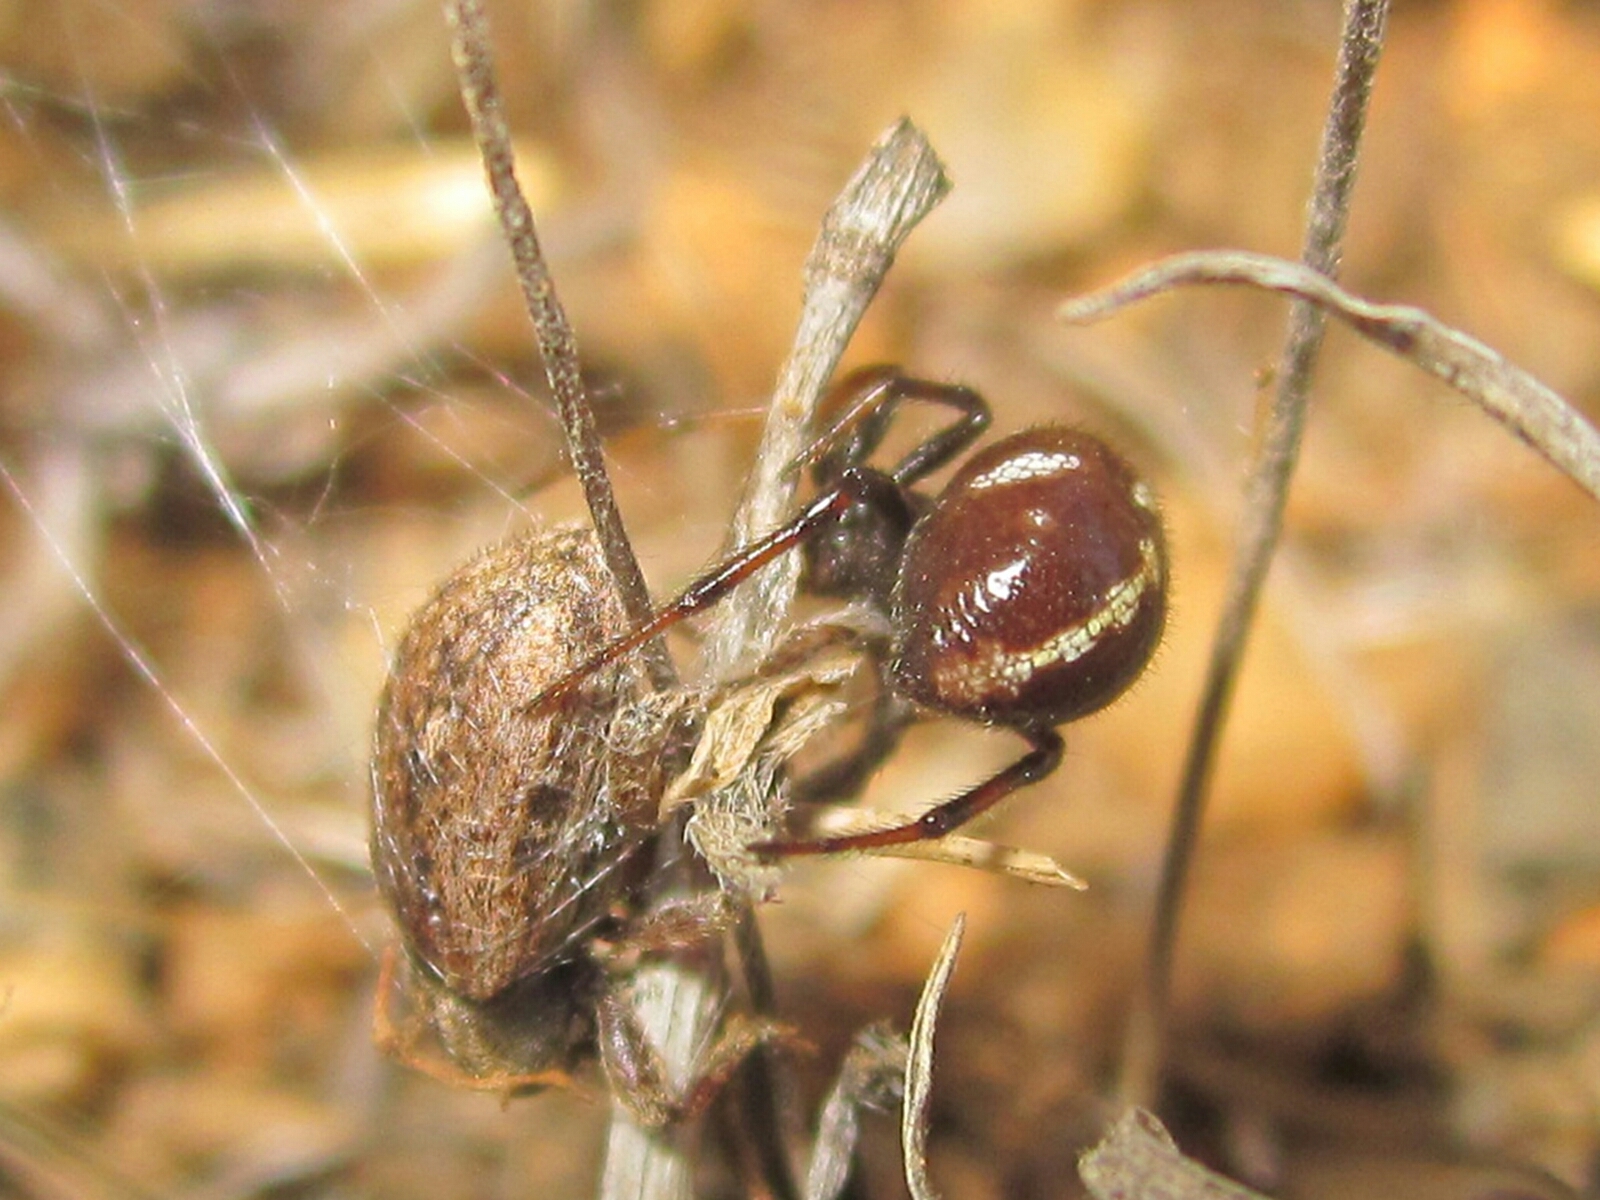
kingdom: Animalia
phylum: Arthropoda
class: Arachnida
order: Araneae
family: Theridiidae
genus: Steatoda
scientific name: Steatoda ancorata
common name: Cobweb spiders
